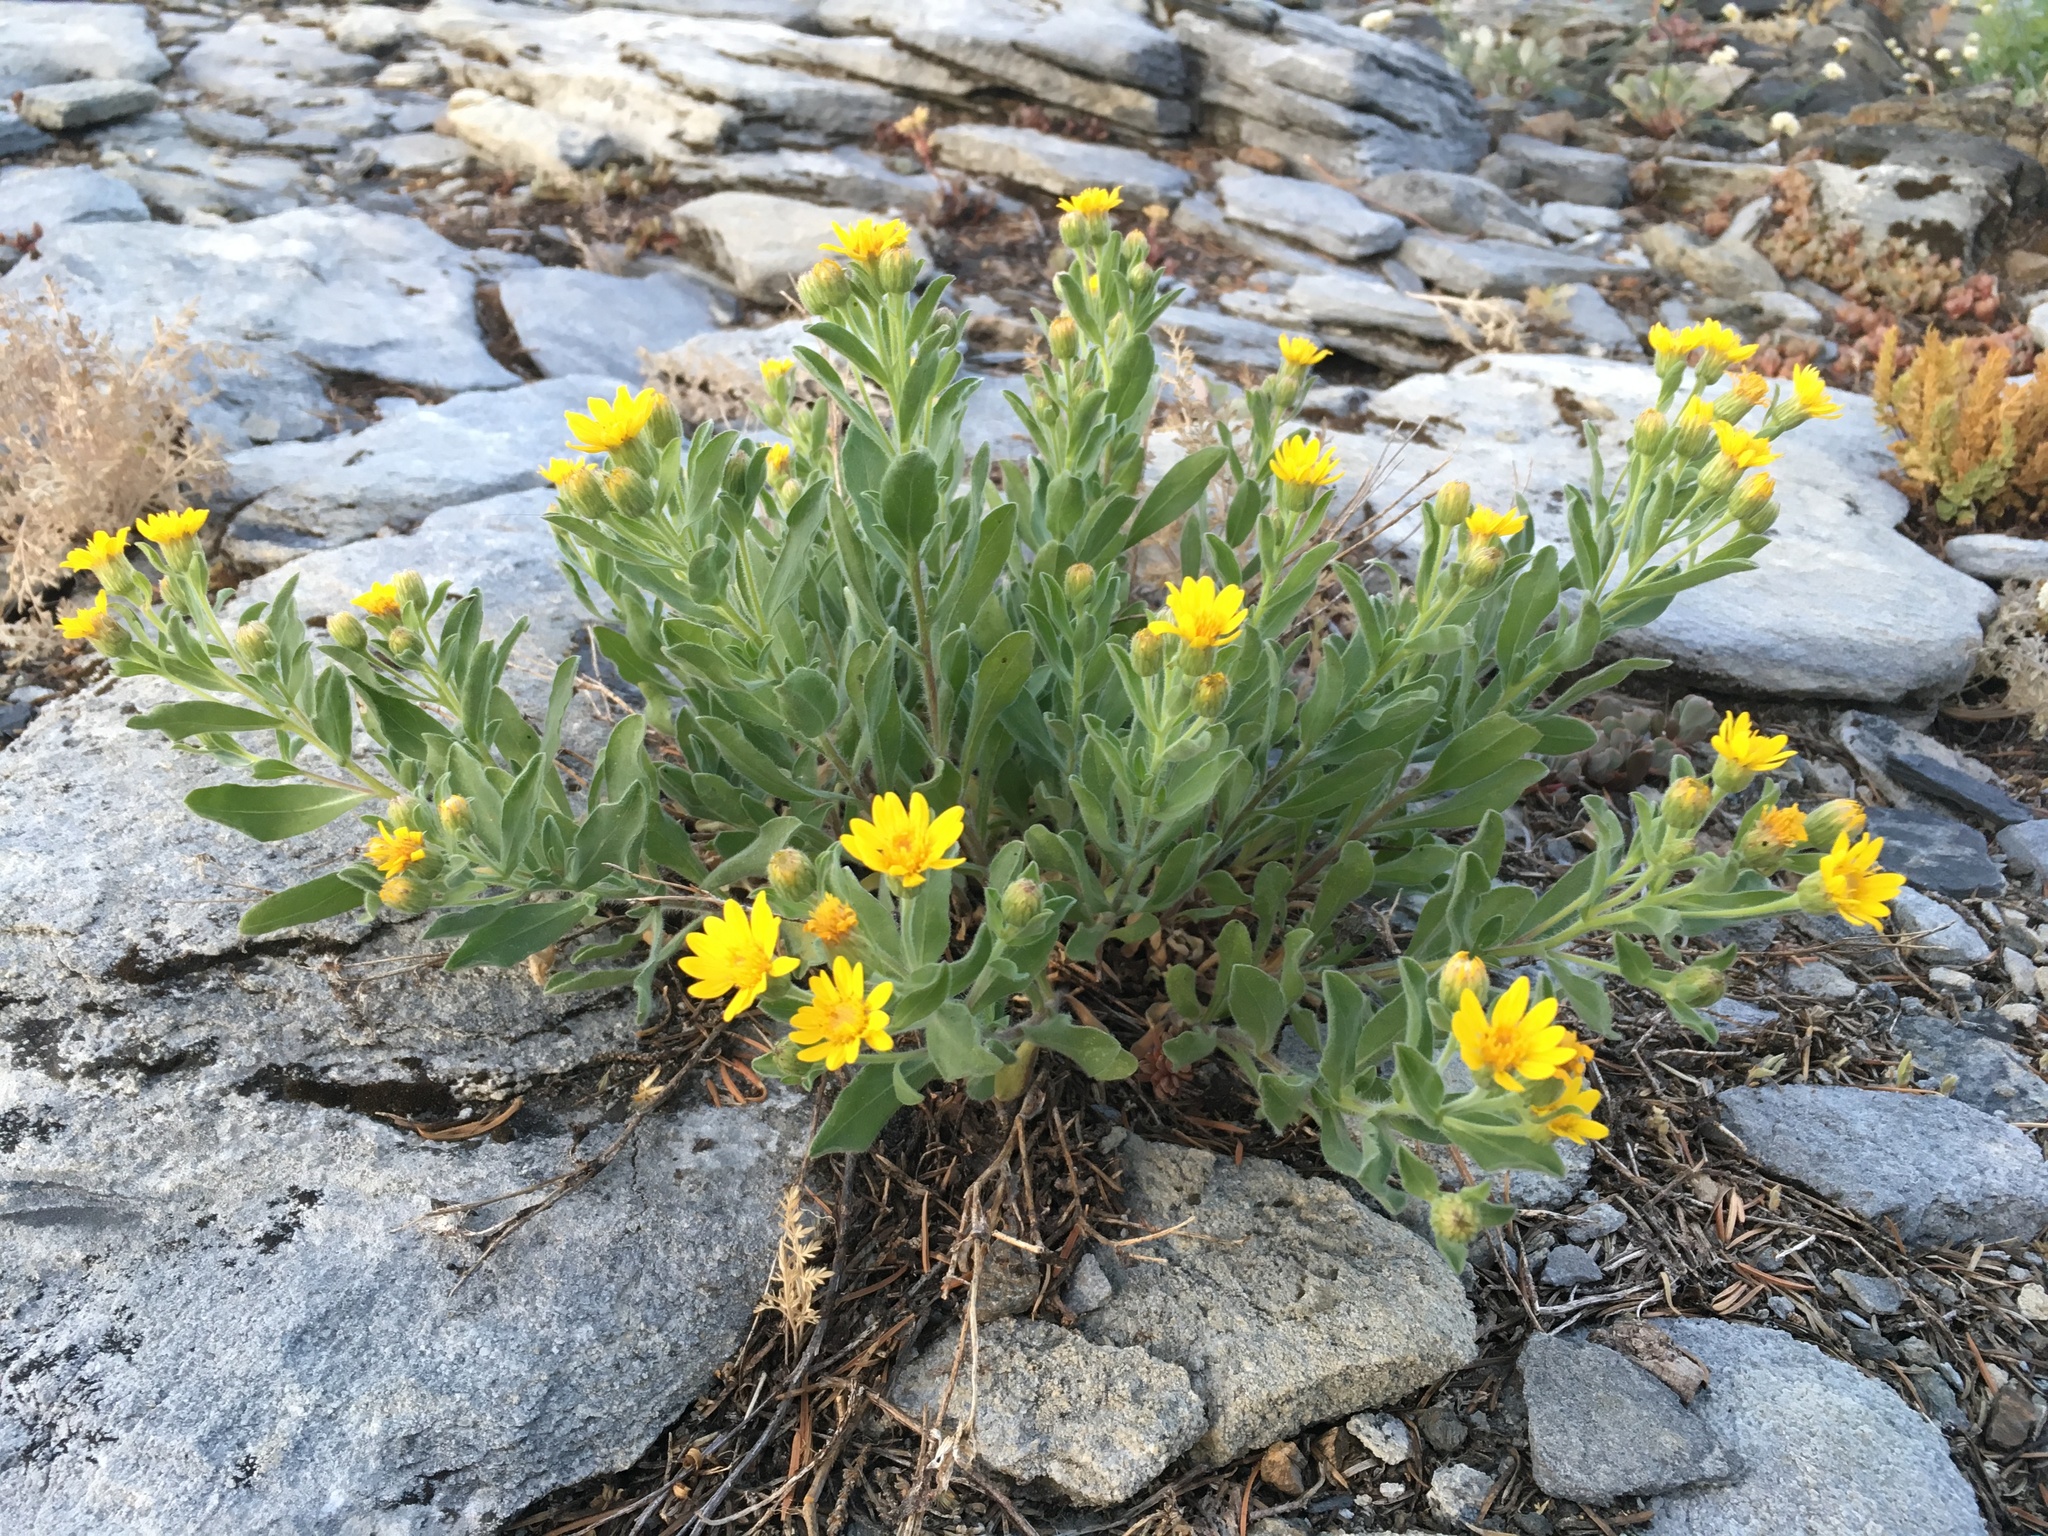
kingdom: Plantae
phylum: Tracheophyta
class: Magnoliopsida
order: Asterales
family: Asteraceae
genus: Heterotheca
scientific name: Heterotheca orovillosa
